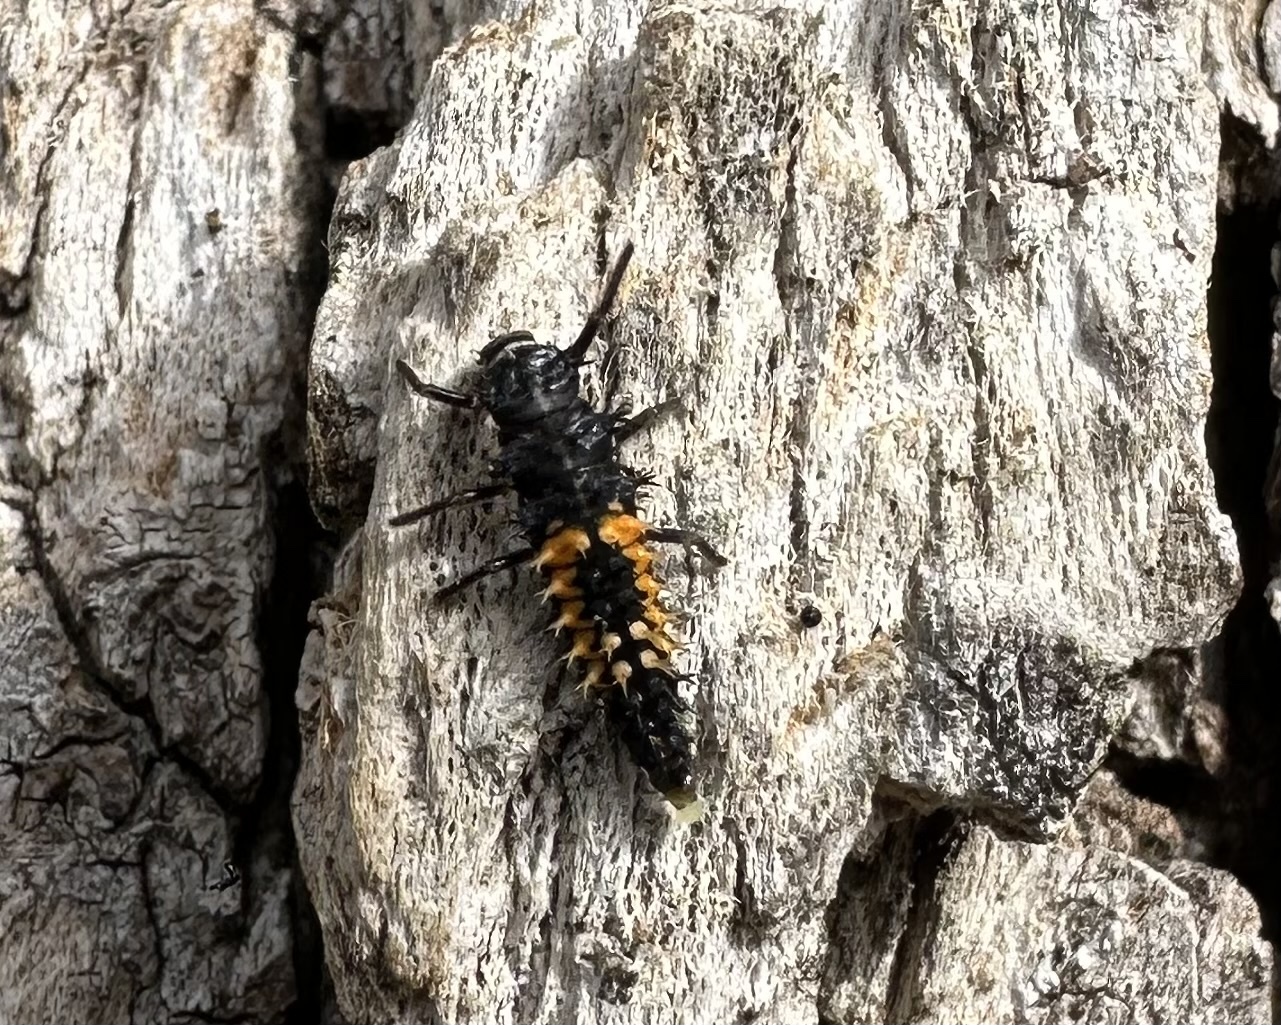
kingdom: Animalia
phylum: Arthropoda
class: Insecta
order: Coleoptera
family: Coccinellidae
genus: Harmonia
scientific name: Harmonia axyridis
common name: Harlequin ladybird
